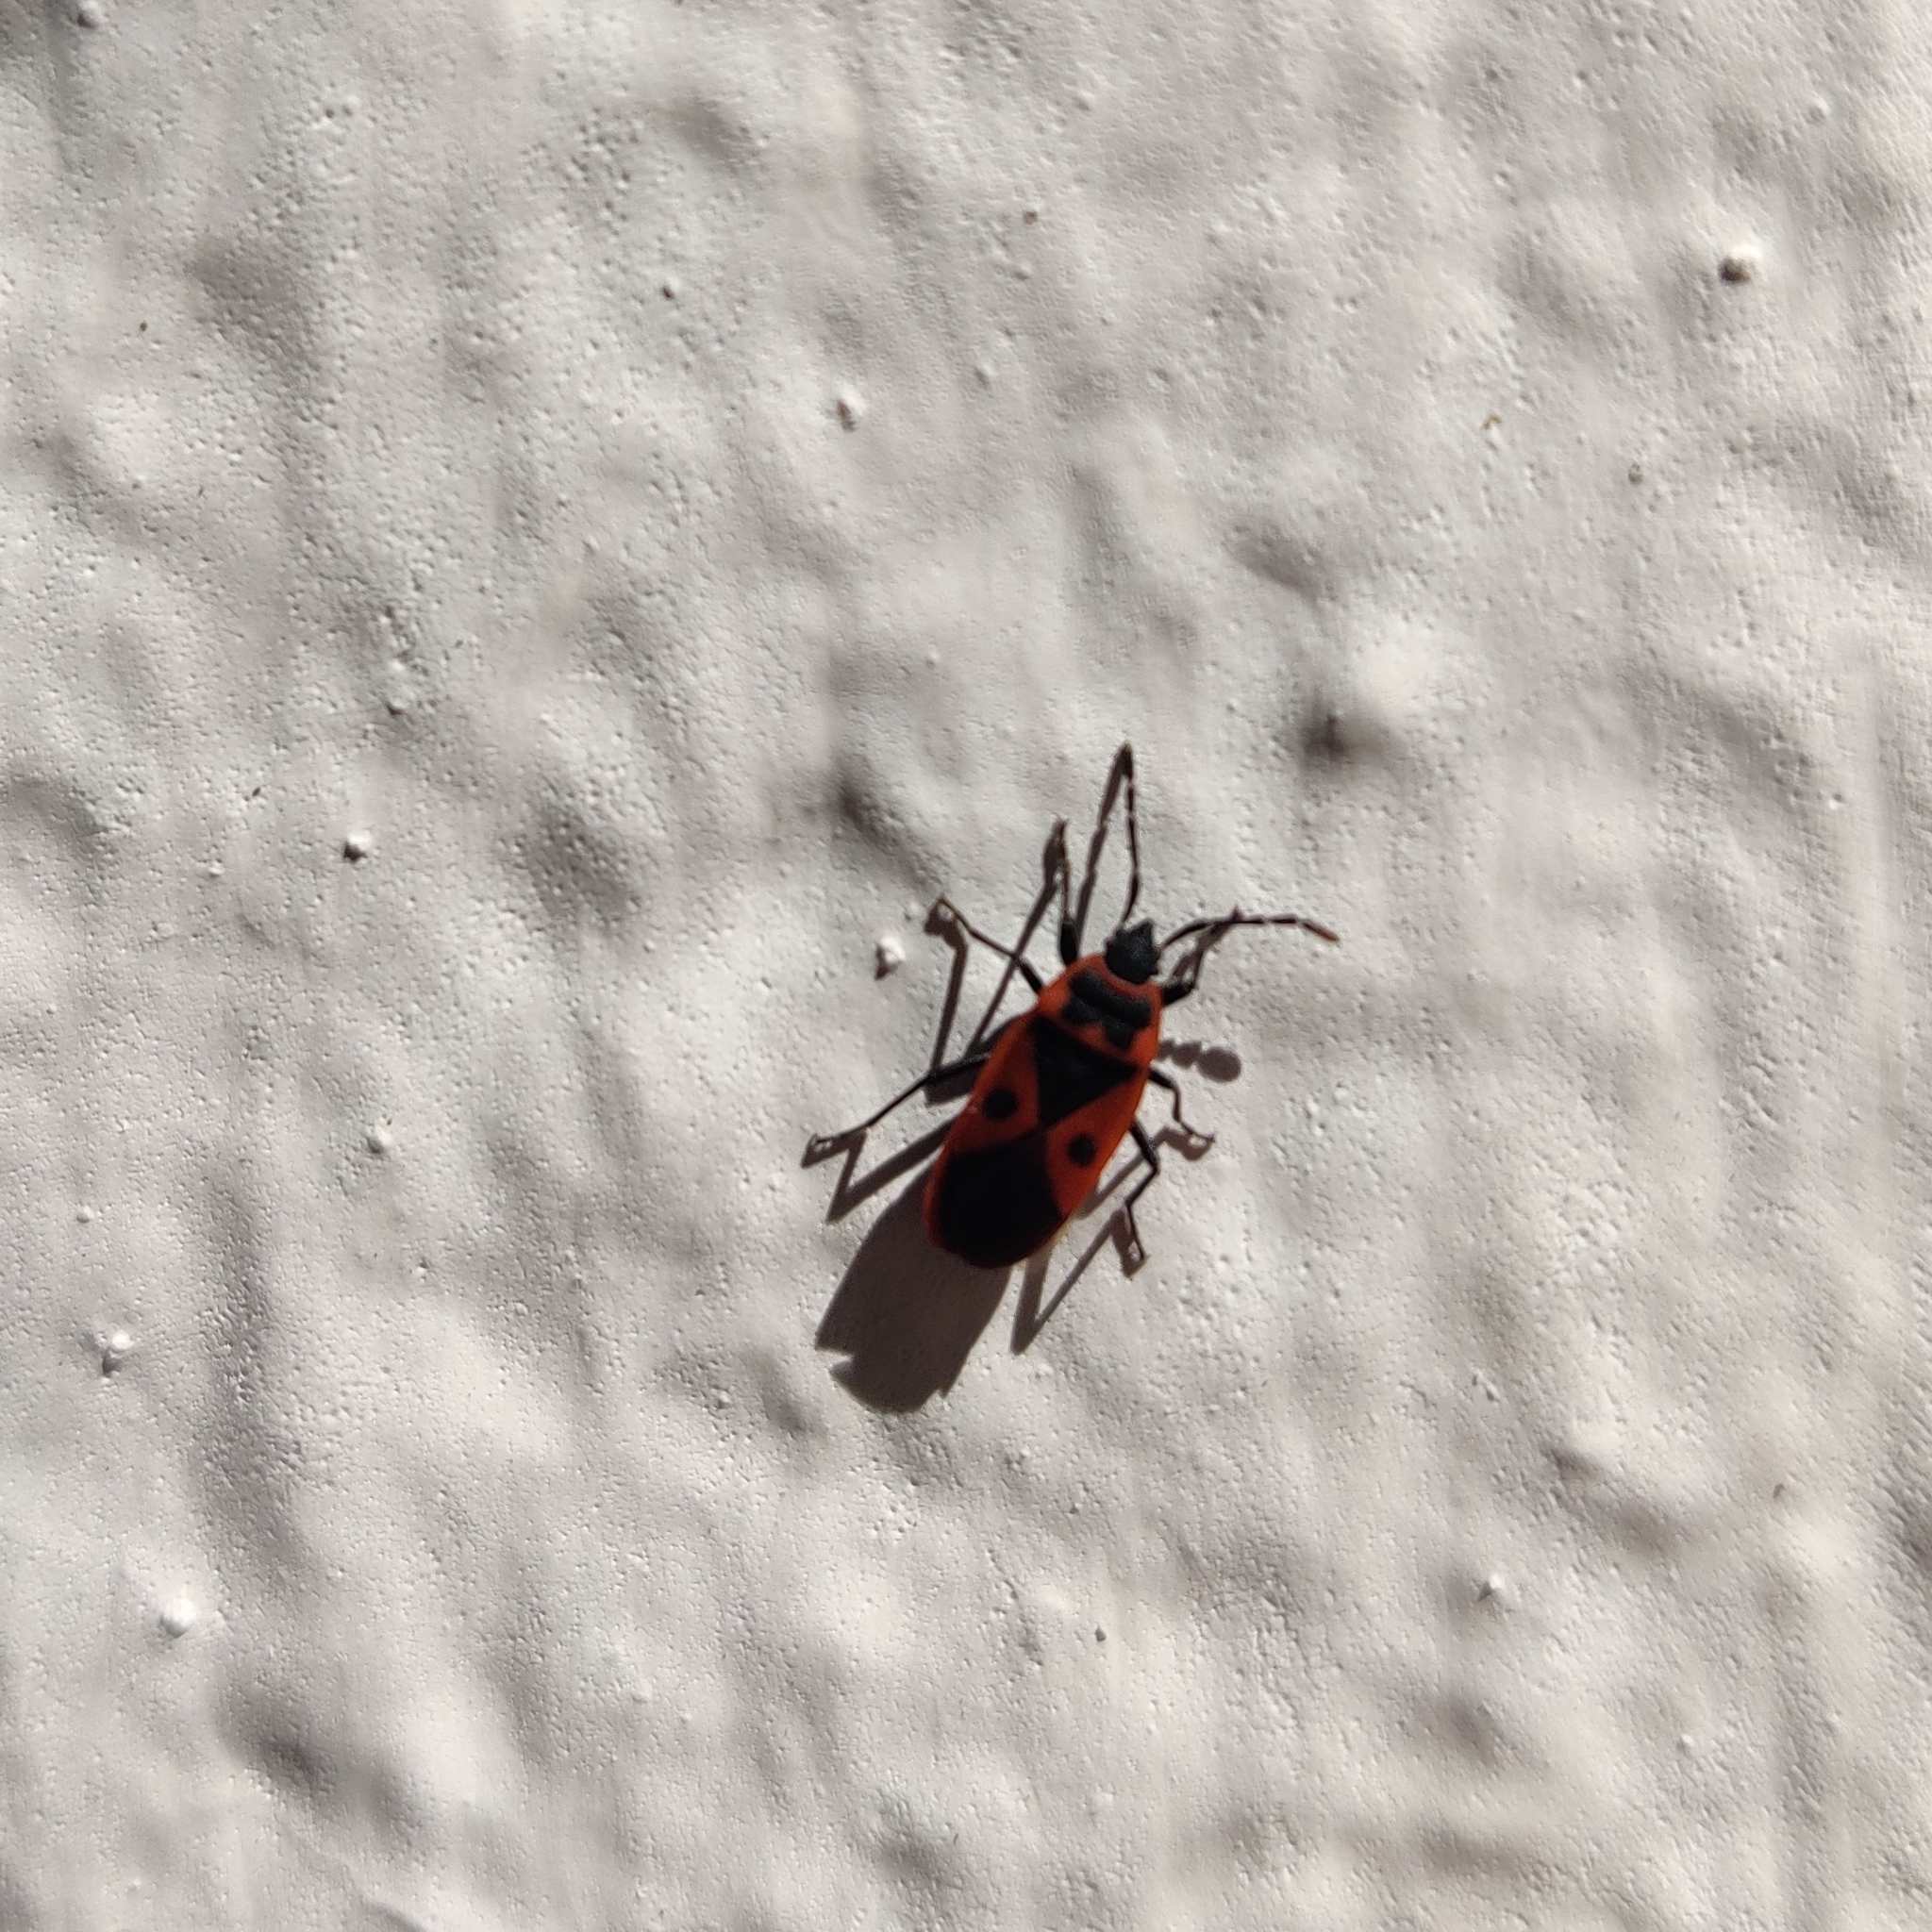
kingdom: Animalia
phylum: Arthropoda
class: Insecta
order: Hemiptera
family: Pyrrhocoridae
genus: Scantius
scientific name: Scantius aegyptius
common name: Red bug
